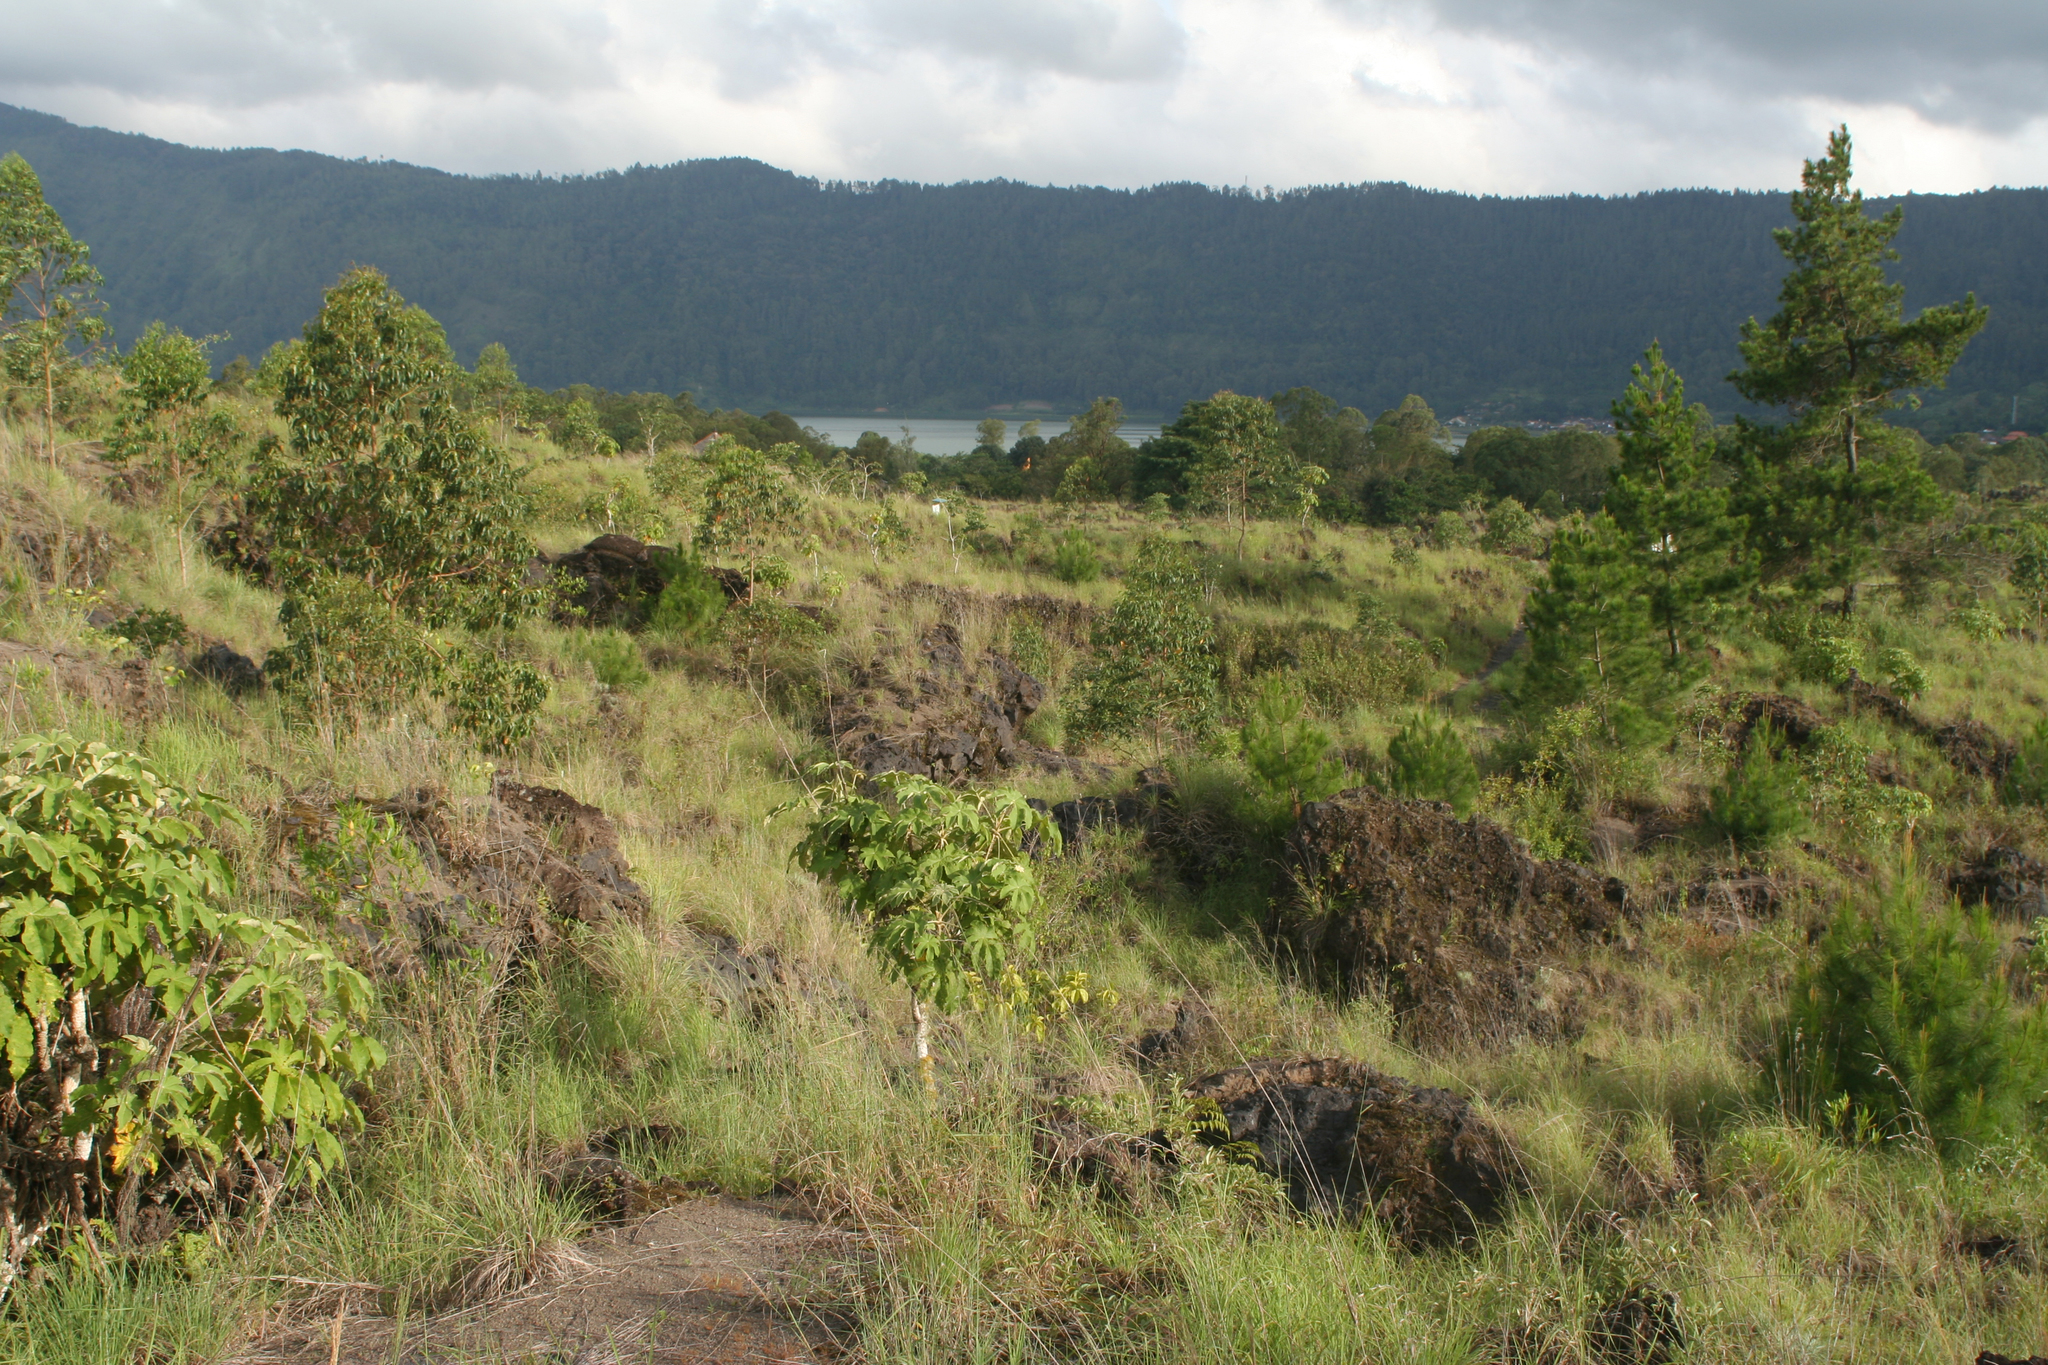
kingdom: Plantae
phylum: Tracheophyta
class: Pinopsida
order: Pinales
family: Pinaceae
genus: Pinus
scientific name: Pinus merkusii
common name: Mindoro pine
